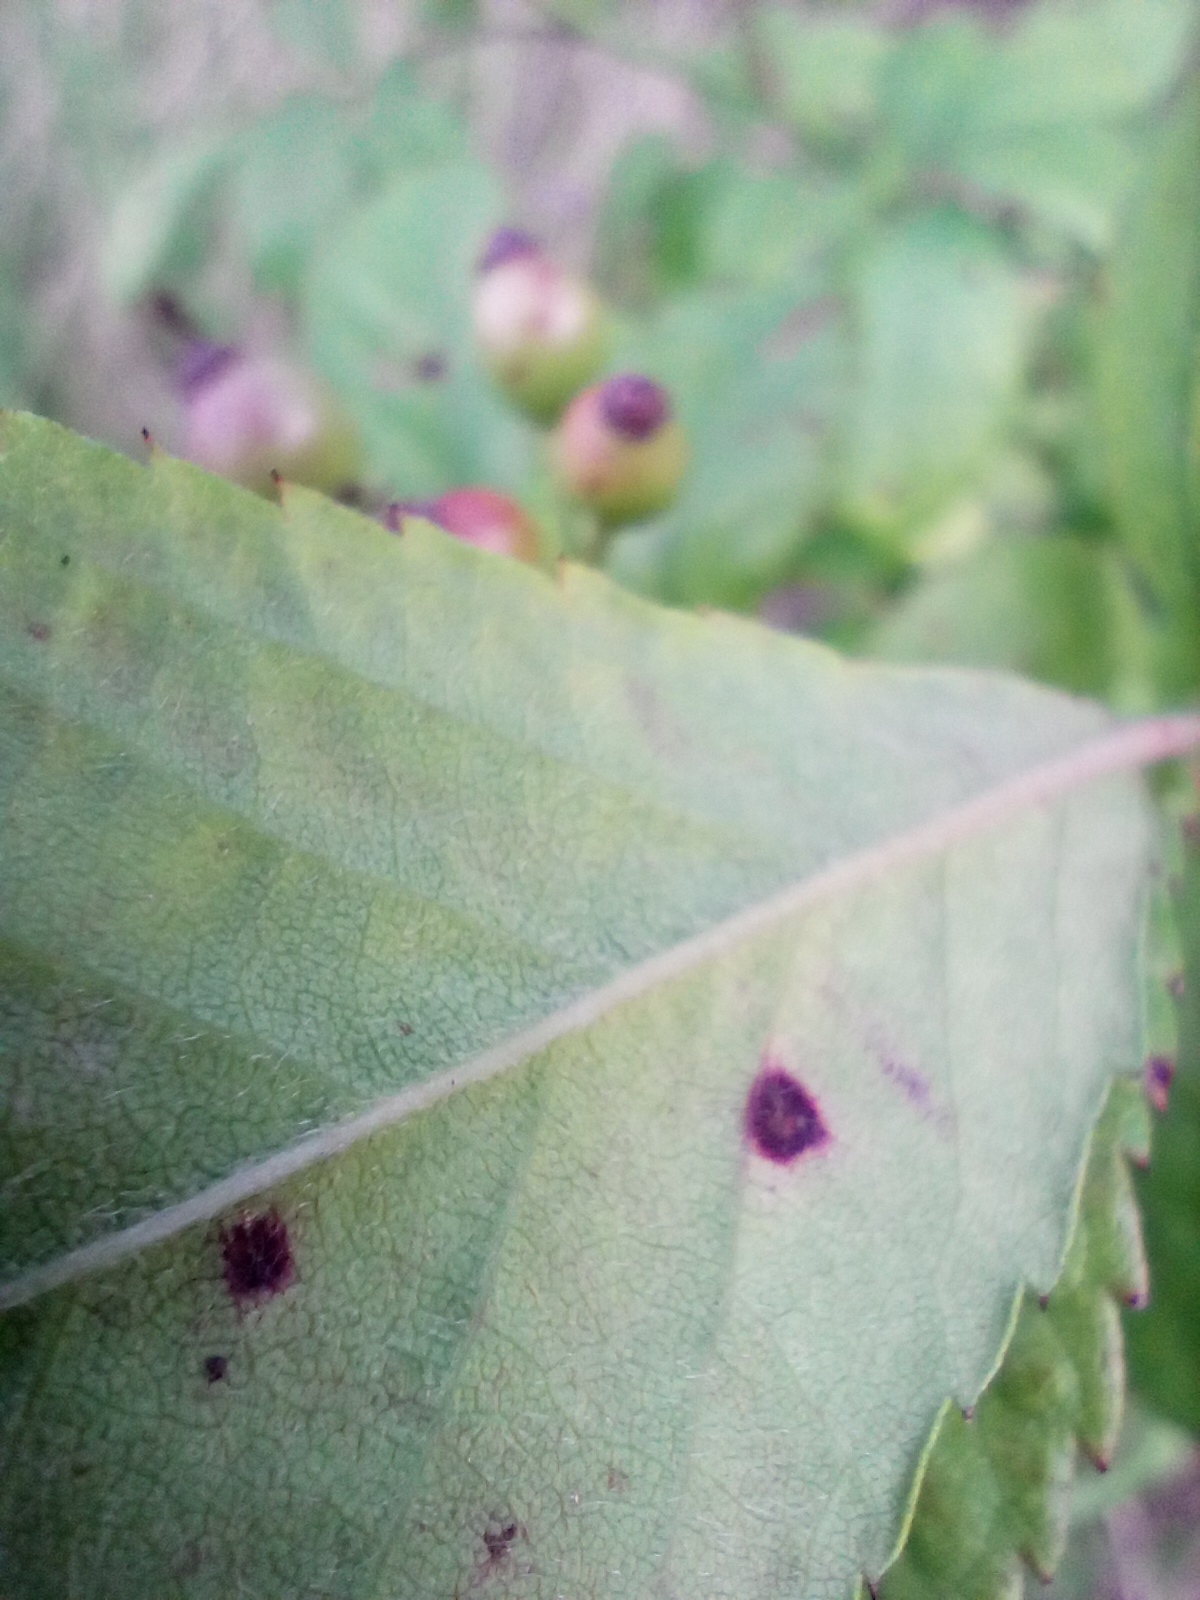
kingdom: Plantae
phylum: Tracheophyta
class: Magnoliopsida
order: Rosales
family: Rosaceae
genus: Rosa
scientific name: Rosa multiflora
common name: Multiflora rose
